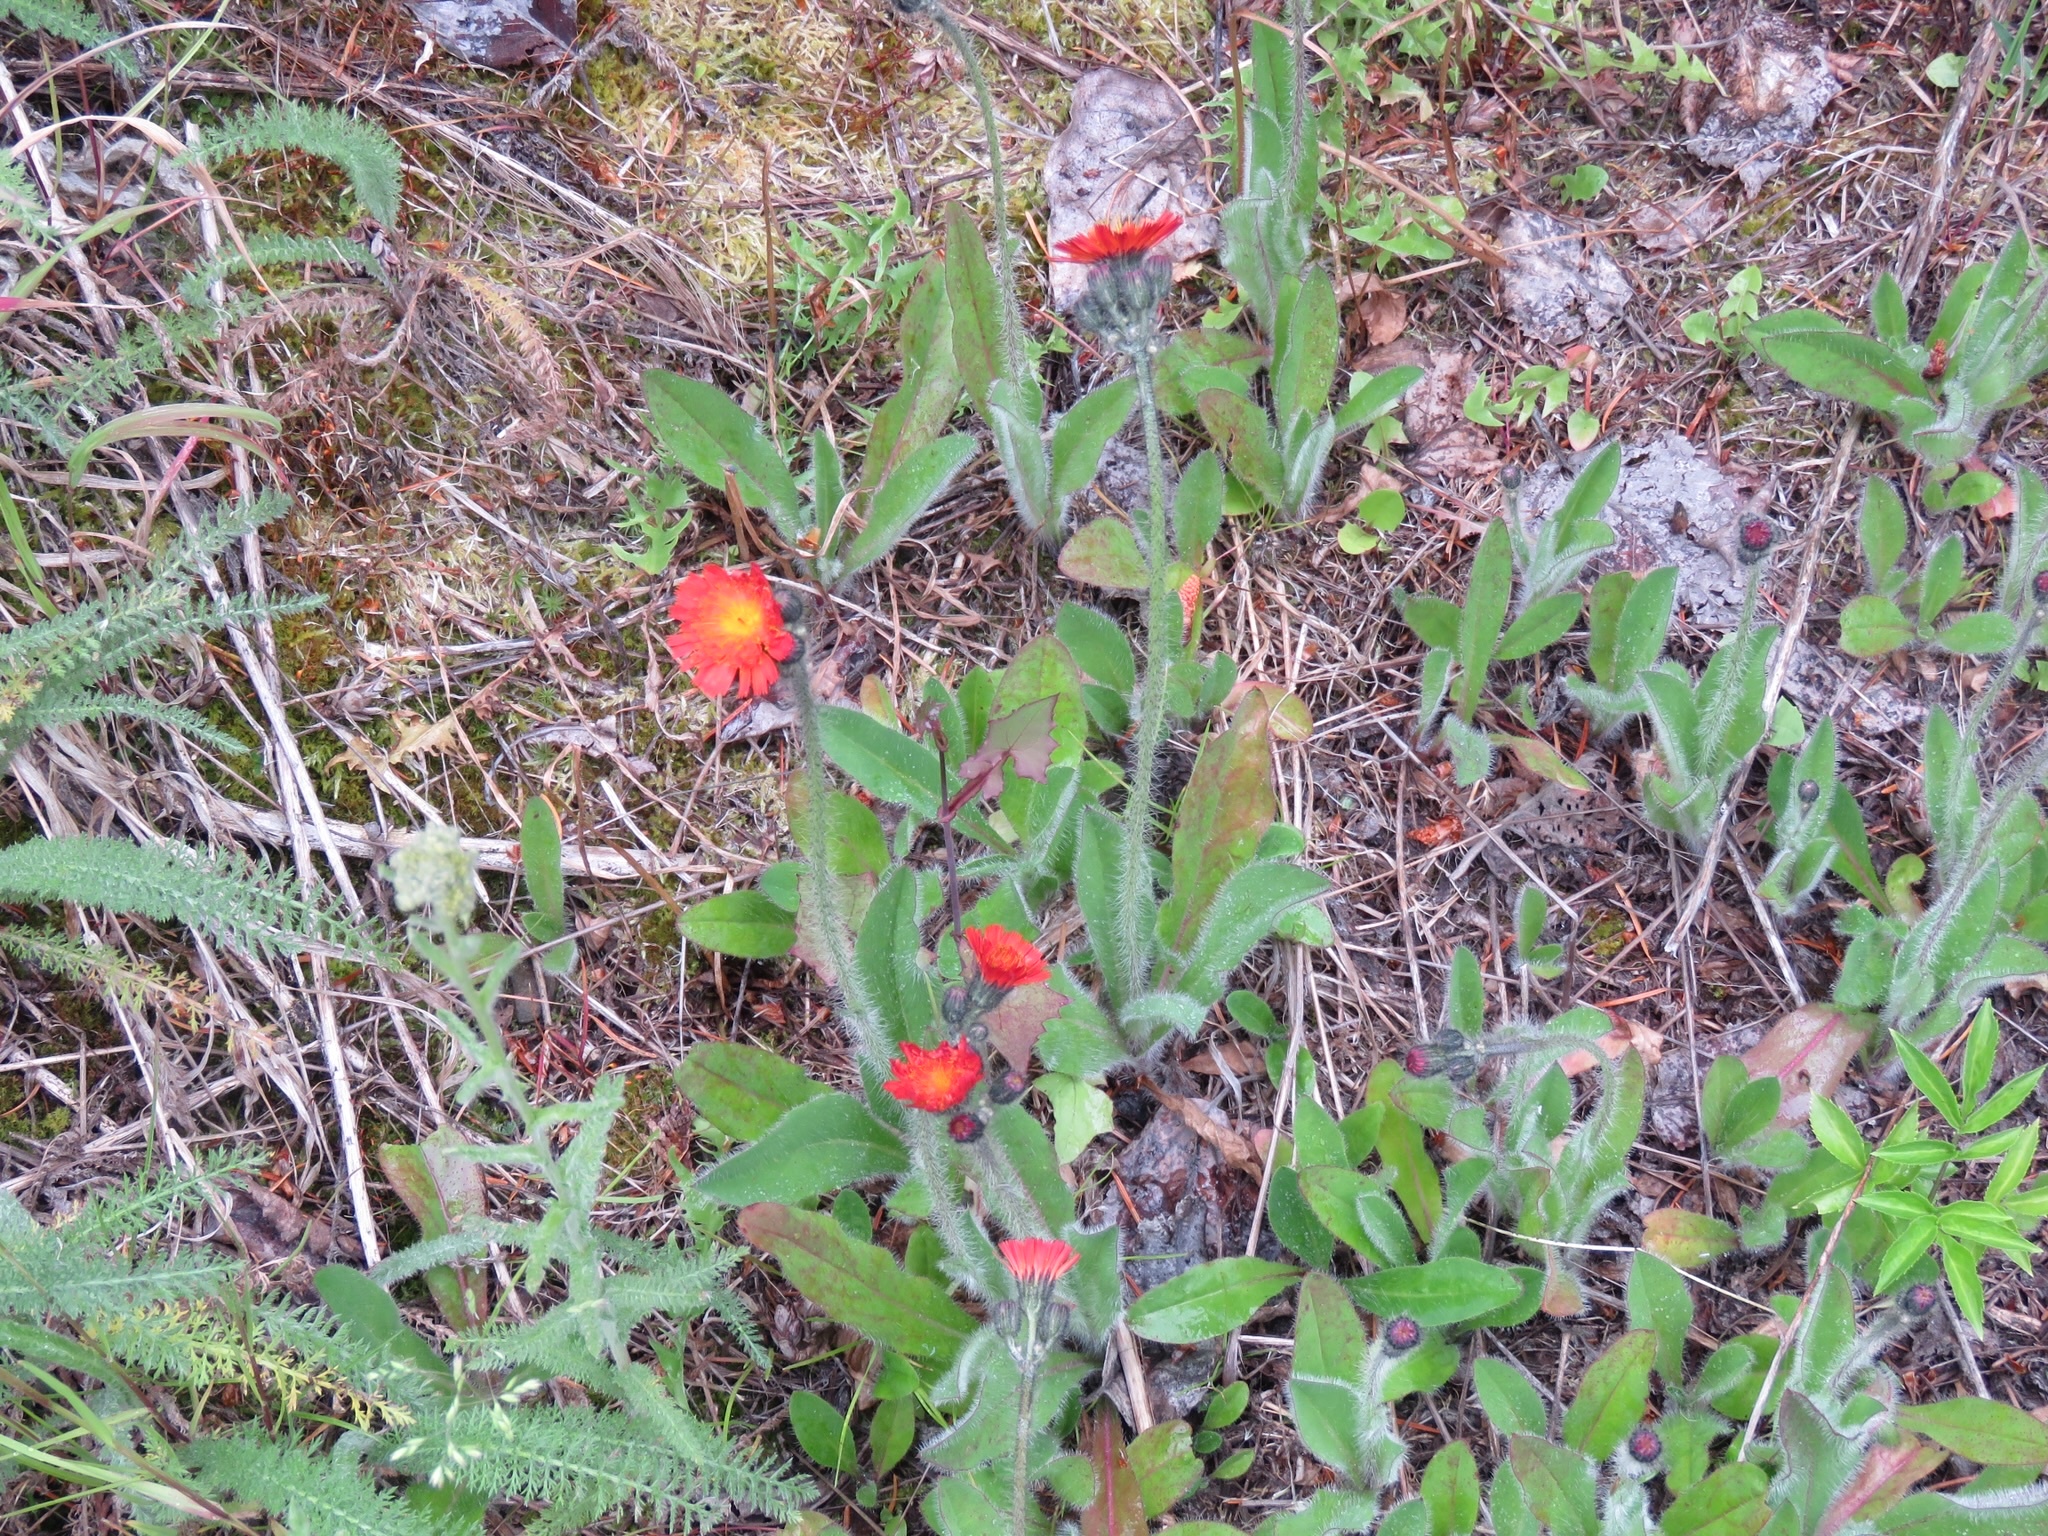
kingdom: Plantae
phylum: Tracheophyta
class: Magnoliopsida
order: Asterales
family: Asteraceae
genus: Pilosella
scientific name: Pilosella aurantiaca
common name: Fox-and-cubs
